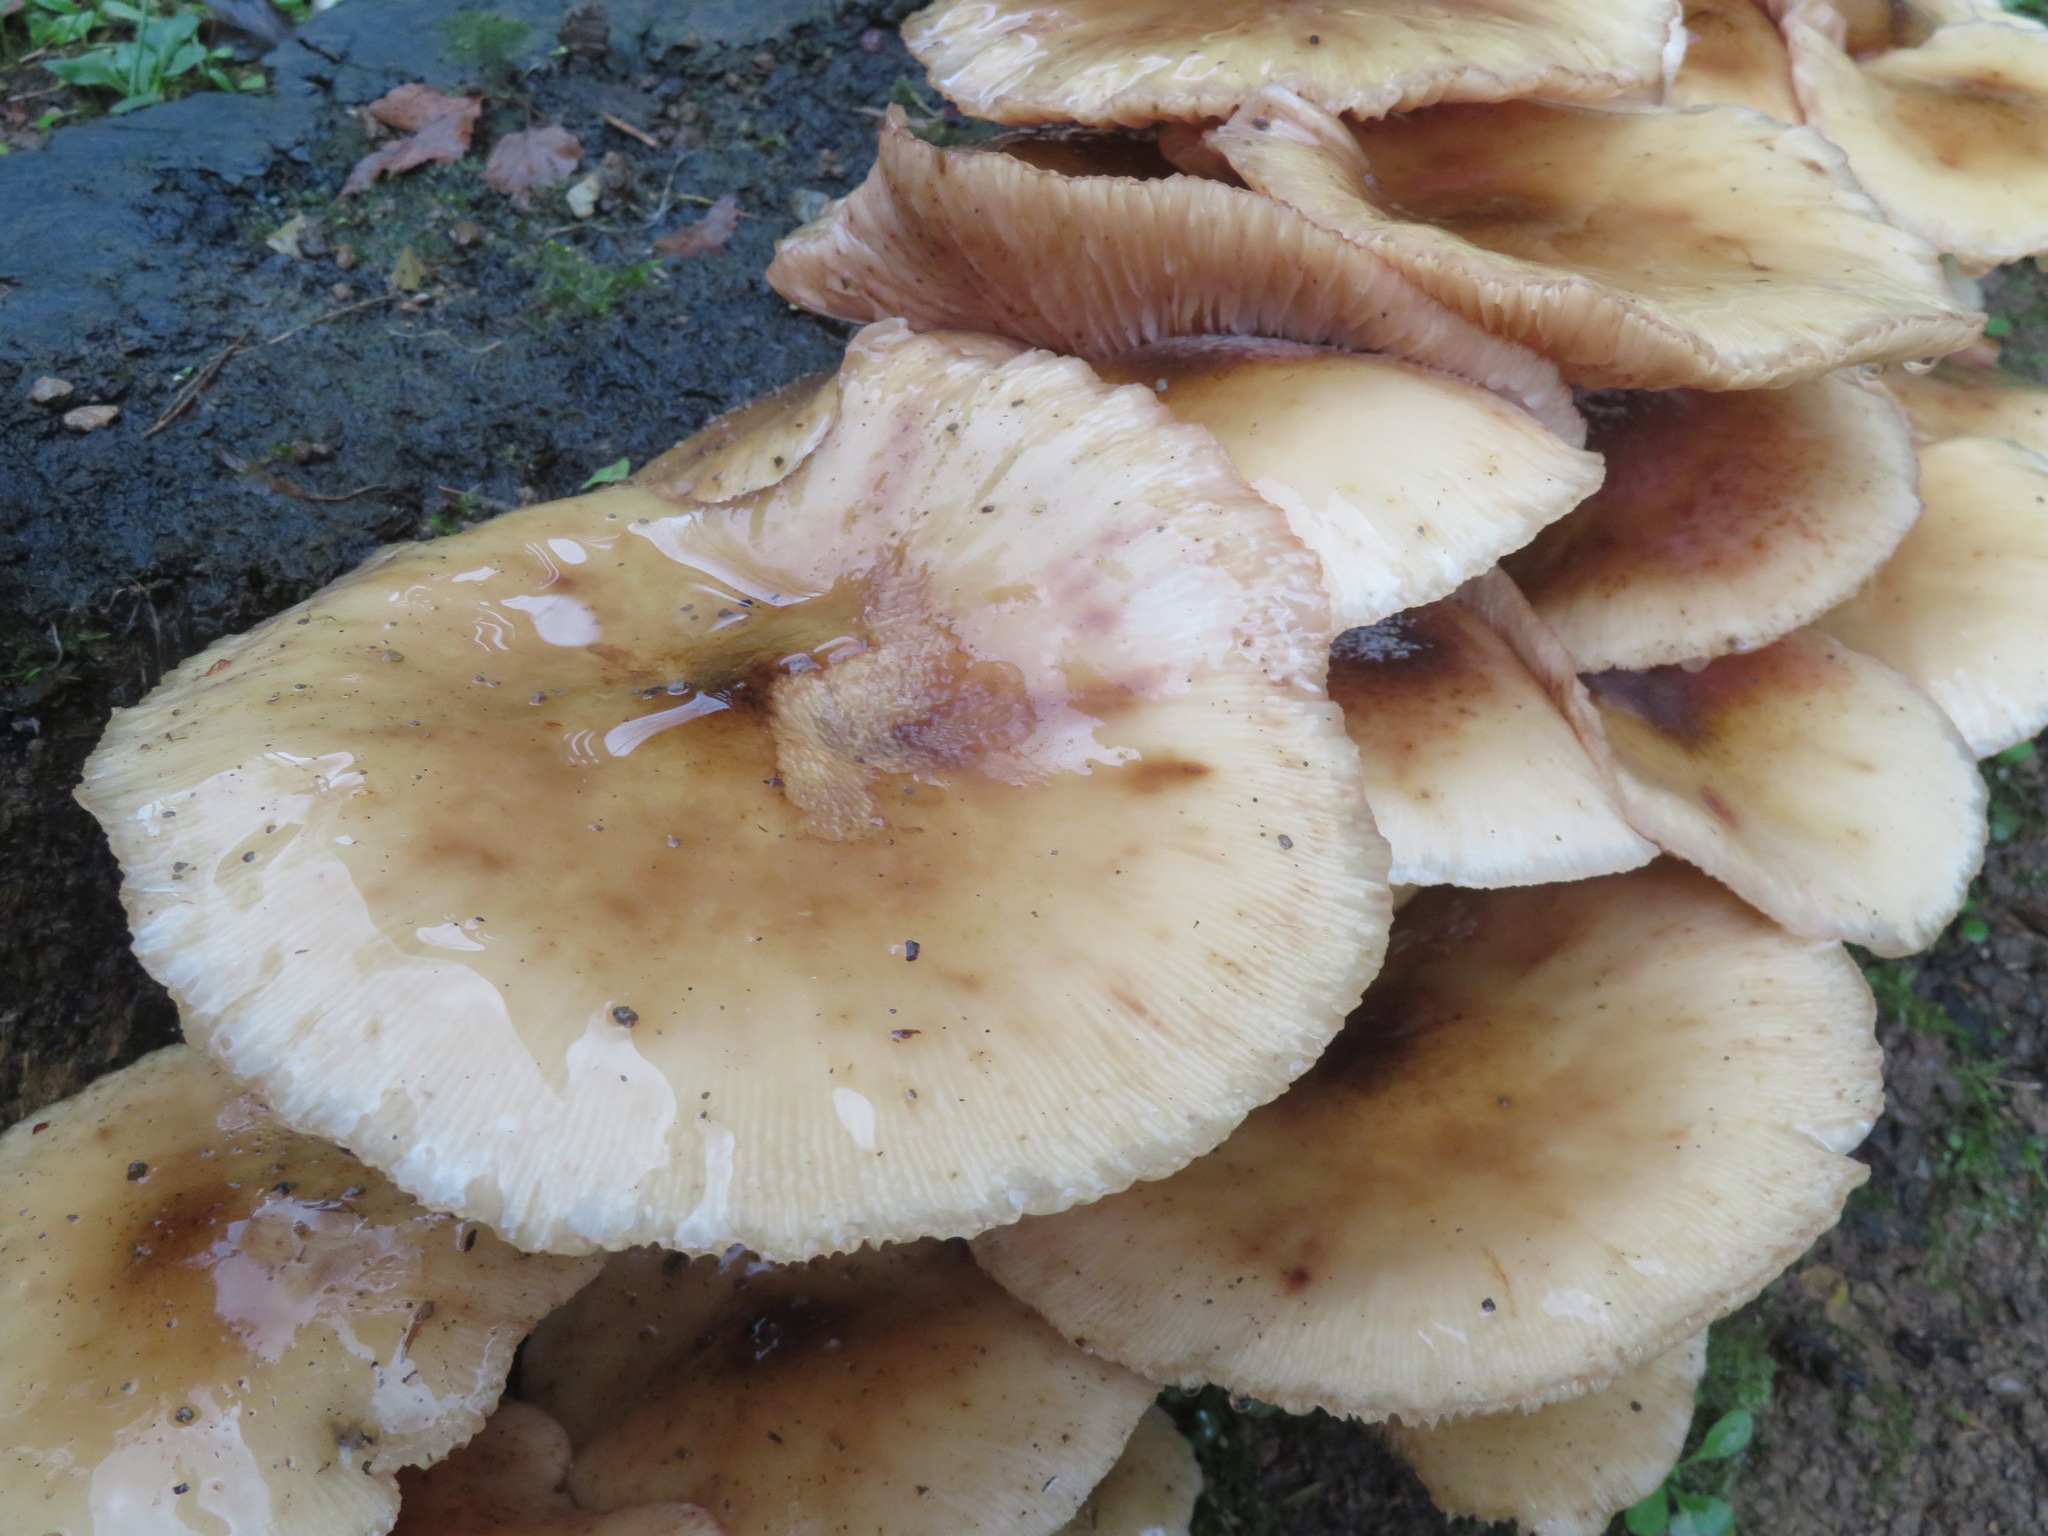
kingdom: Fungi
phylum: Basidiomycota
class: Agaricomycetes
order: Agaricales
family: Physalacriaceae
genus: Armillaria
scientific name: Armillaria mellea
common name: Honey fungus
